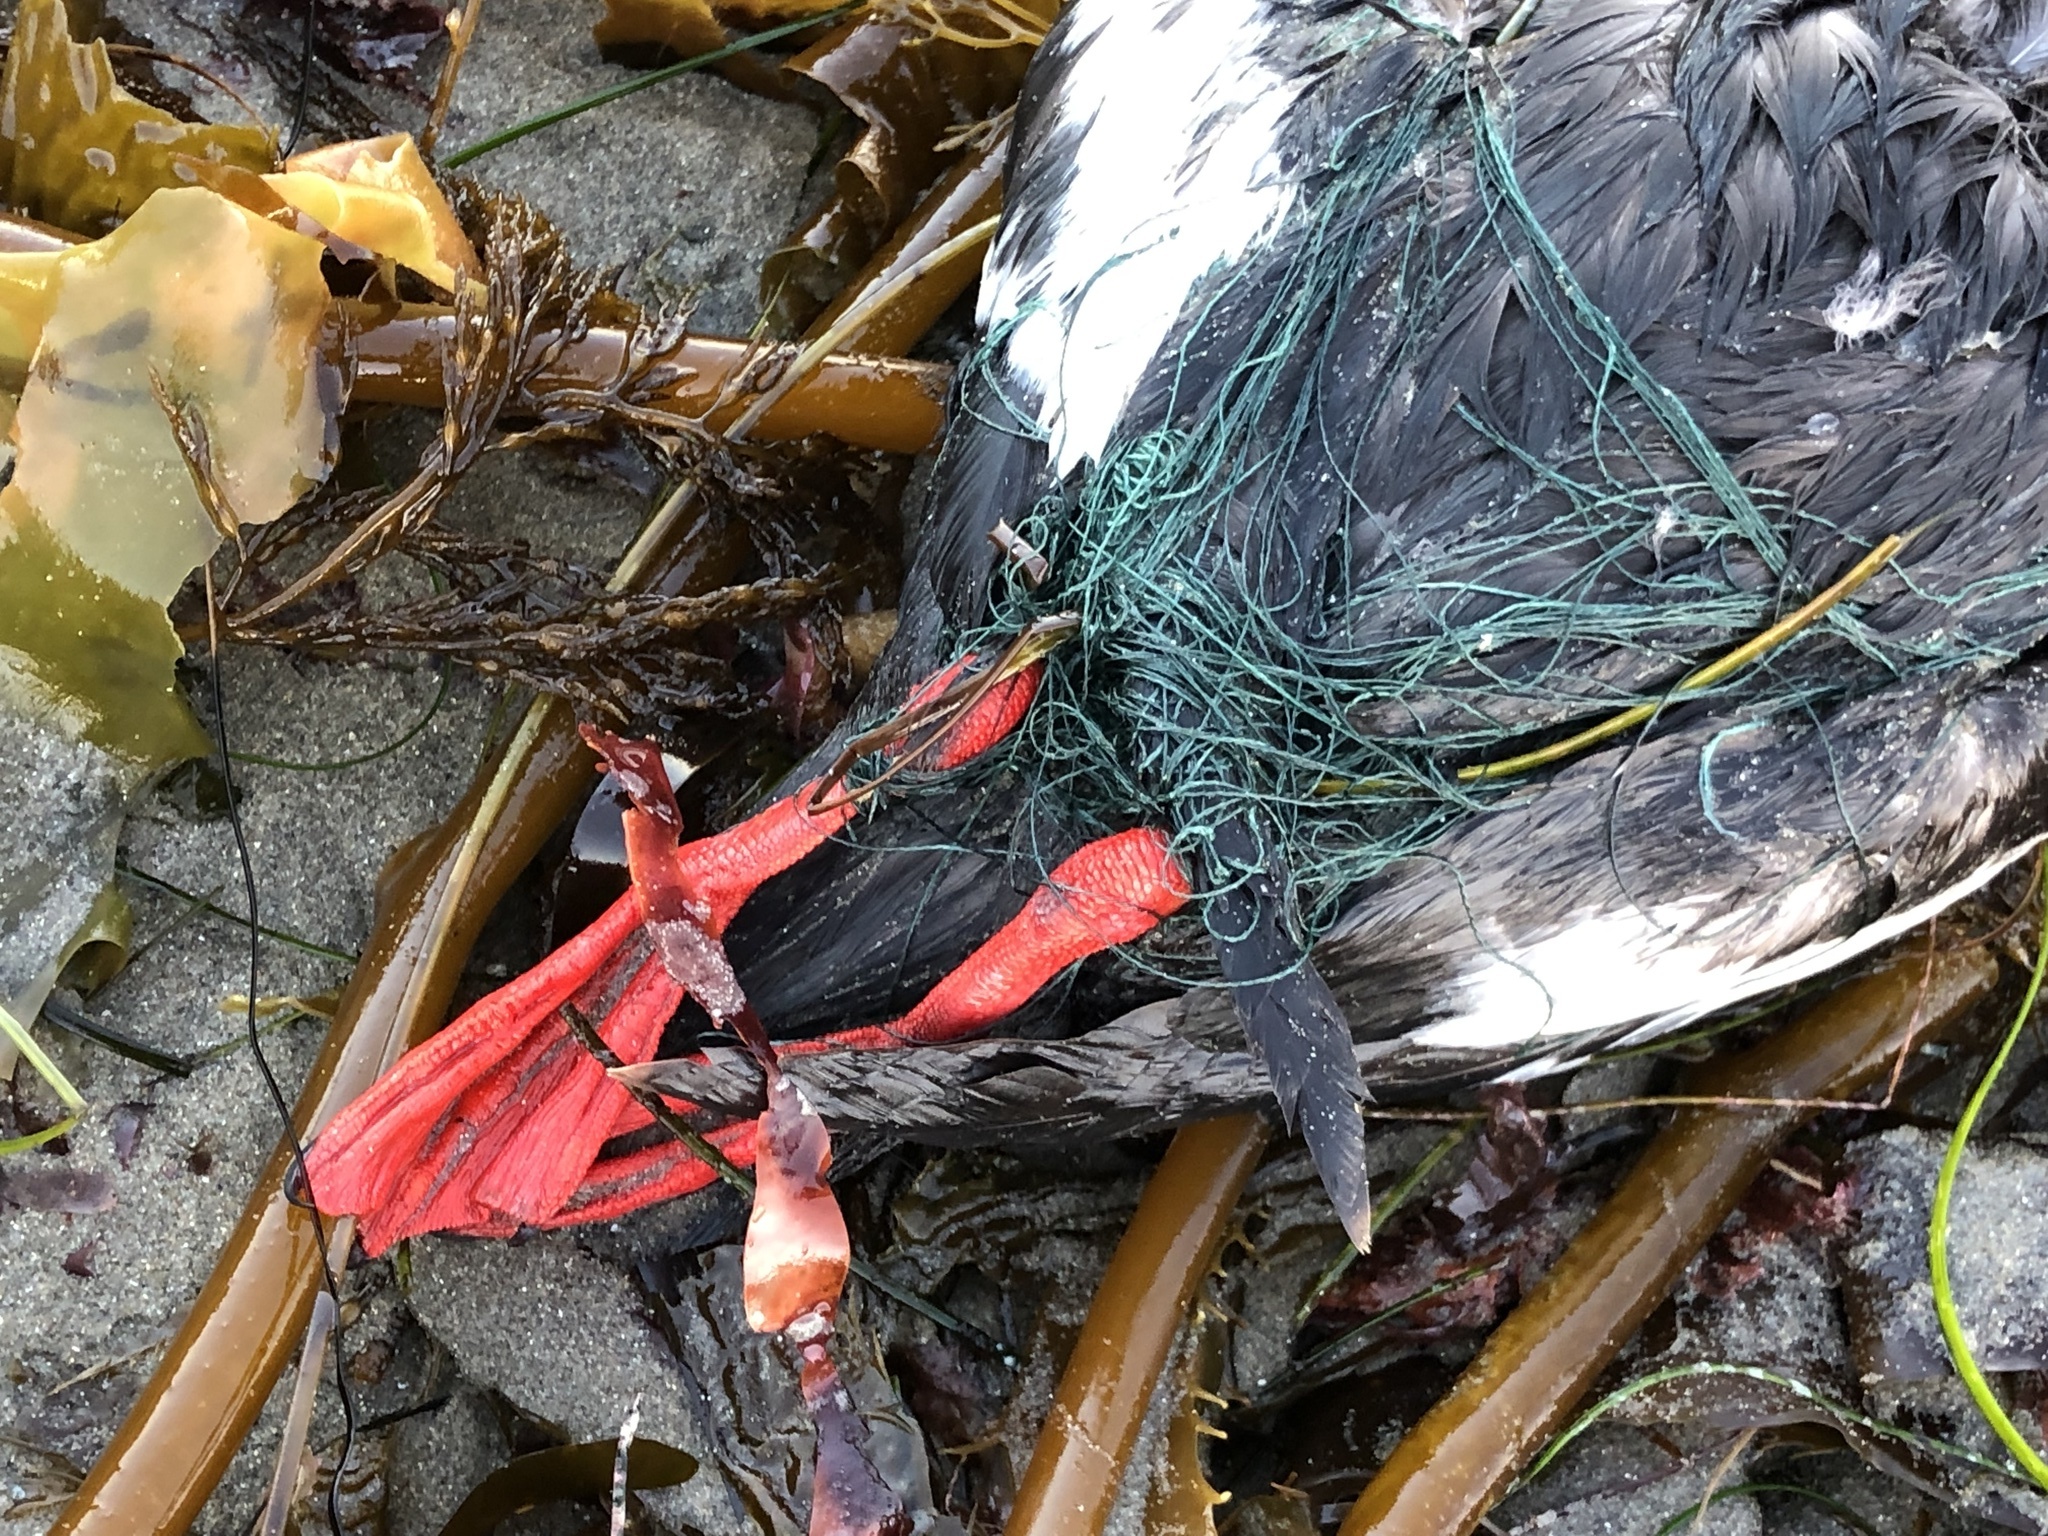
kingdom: Animalia
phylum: Chordata
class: Aves
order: Charadriiformes
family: Alcidae
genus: Cepphus
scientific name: Cepphus columba
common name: Pigeon guillemot
